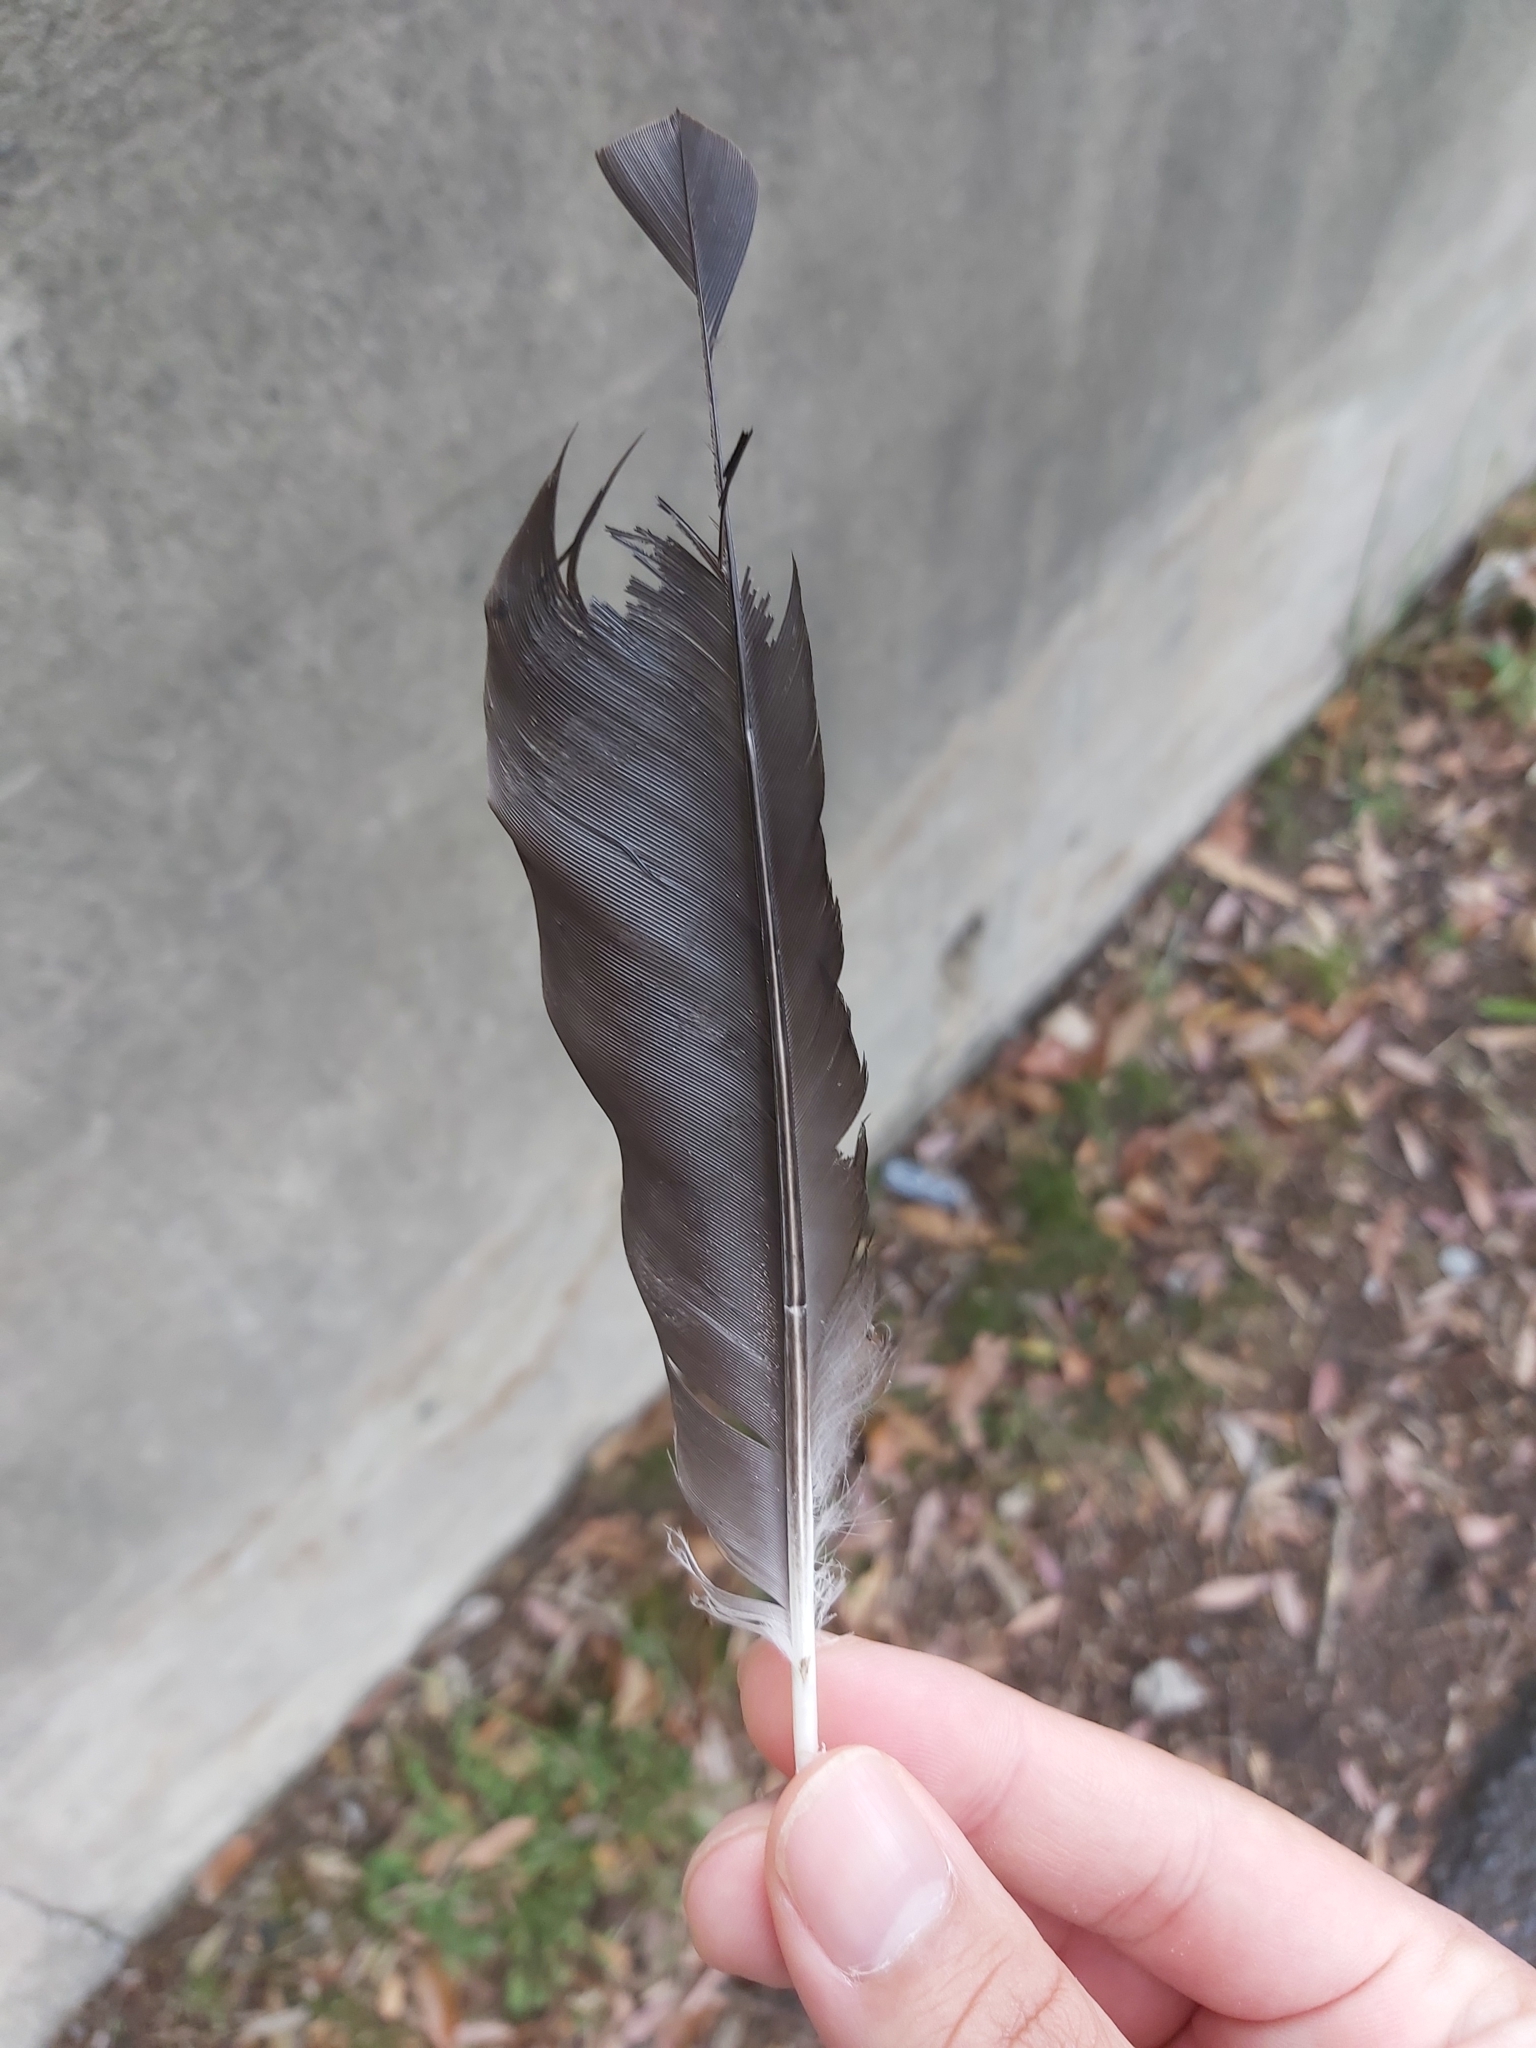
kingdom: Animalia
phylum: Chordata
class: Aves
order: Passeriformes
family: Cracticidae
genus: Gymnorhina
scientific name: Gymnorhina tibicen
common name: Australian magpie
